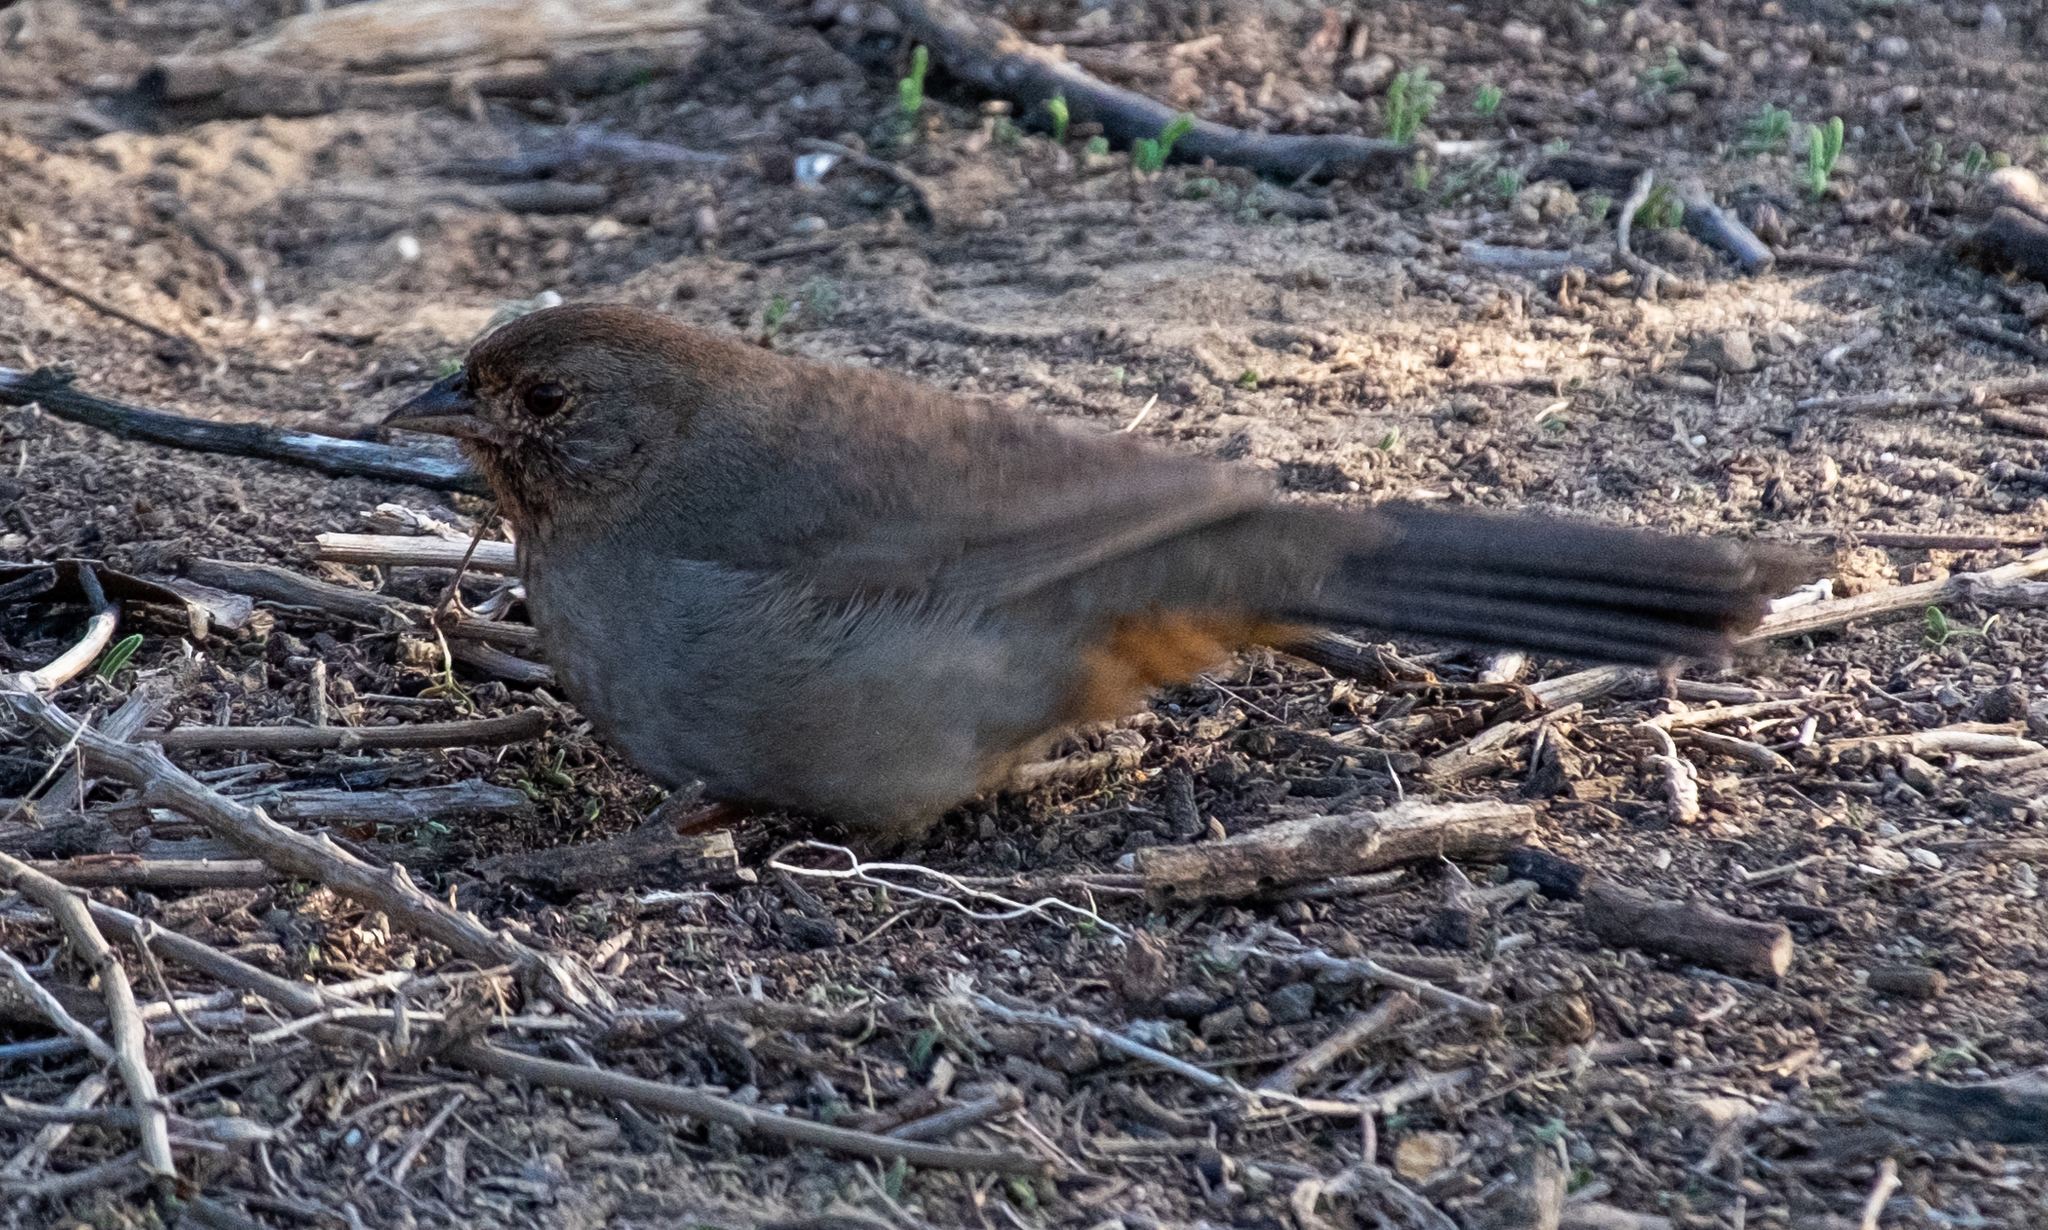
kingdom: Animalia
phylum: Chordata
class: Aves
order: Passeriformes
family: Passerellidae
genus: Melozone
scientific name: Melozone crissalis
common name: California towhee
